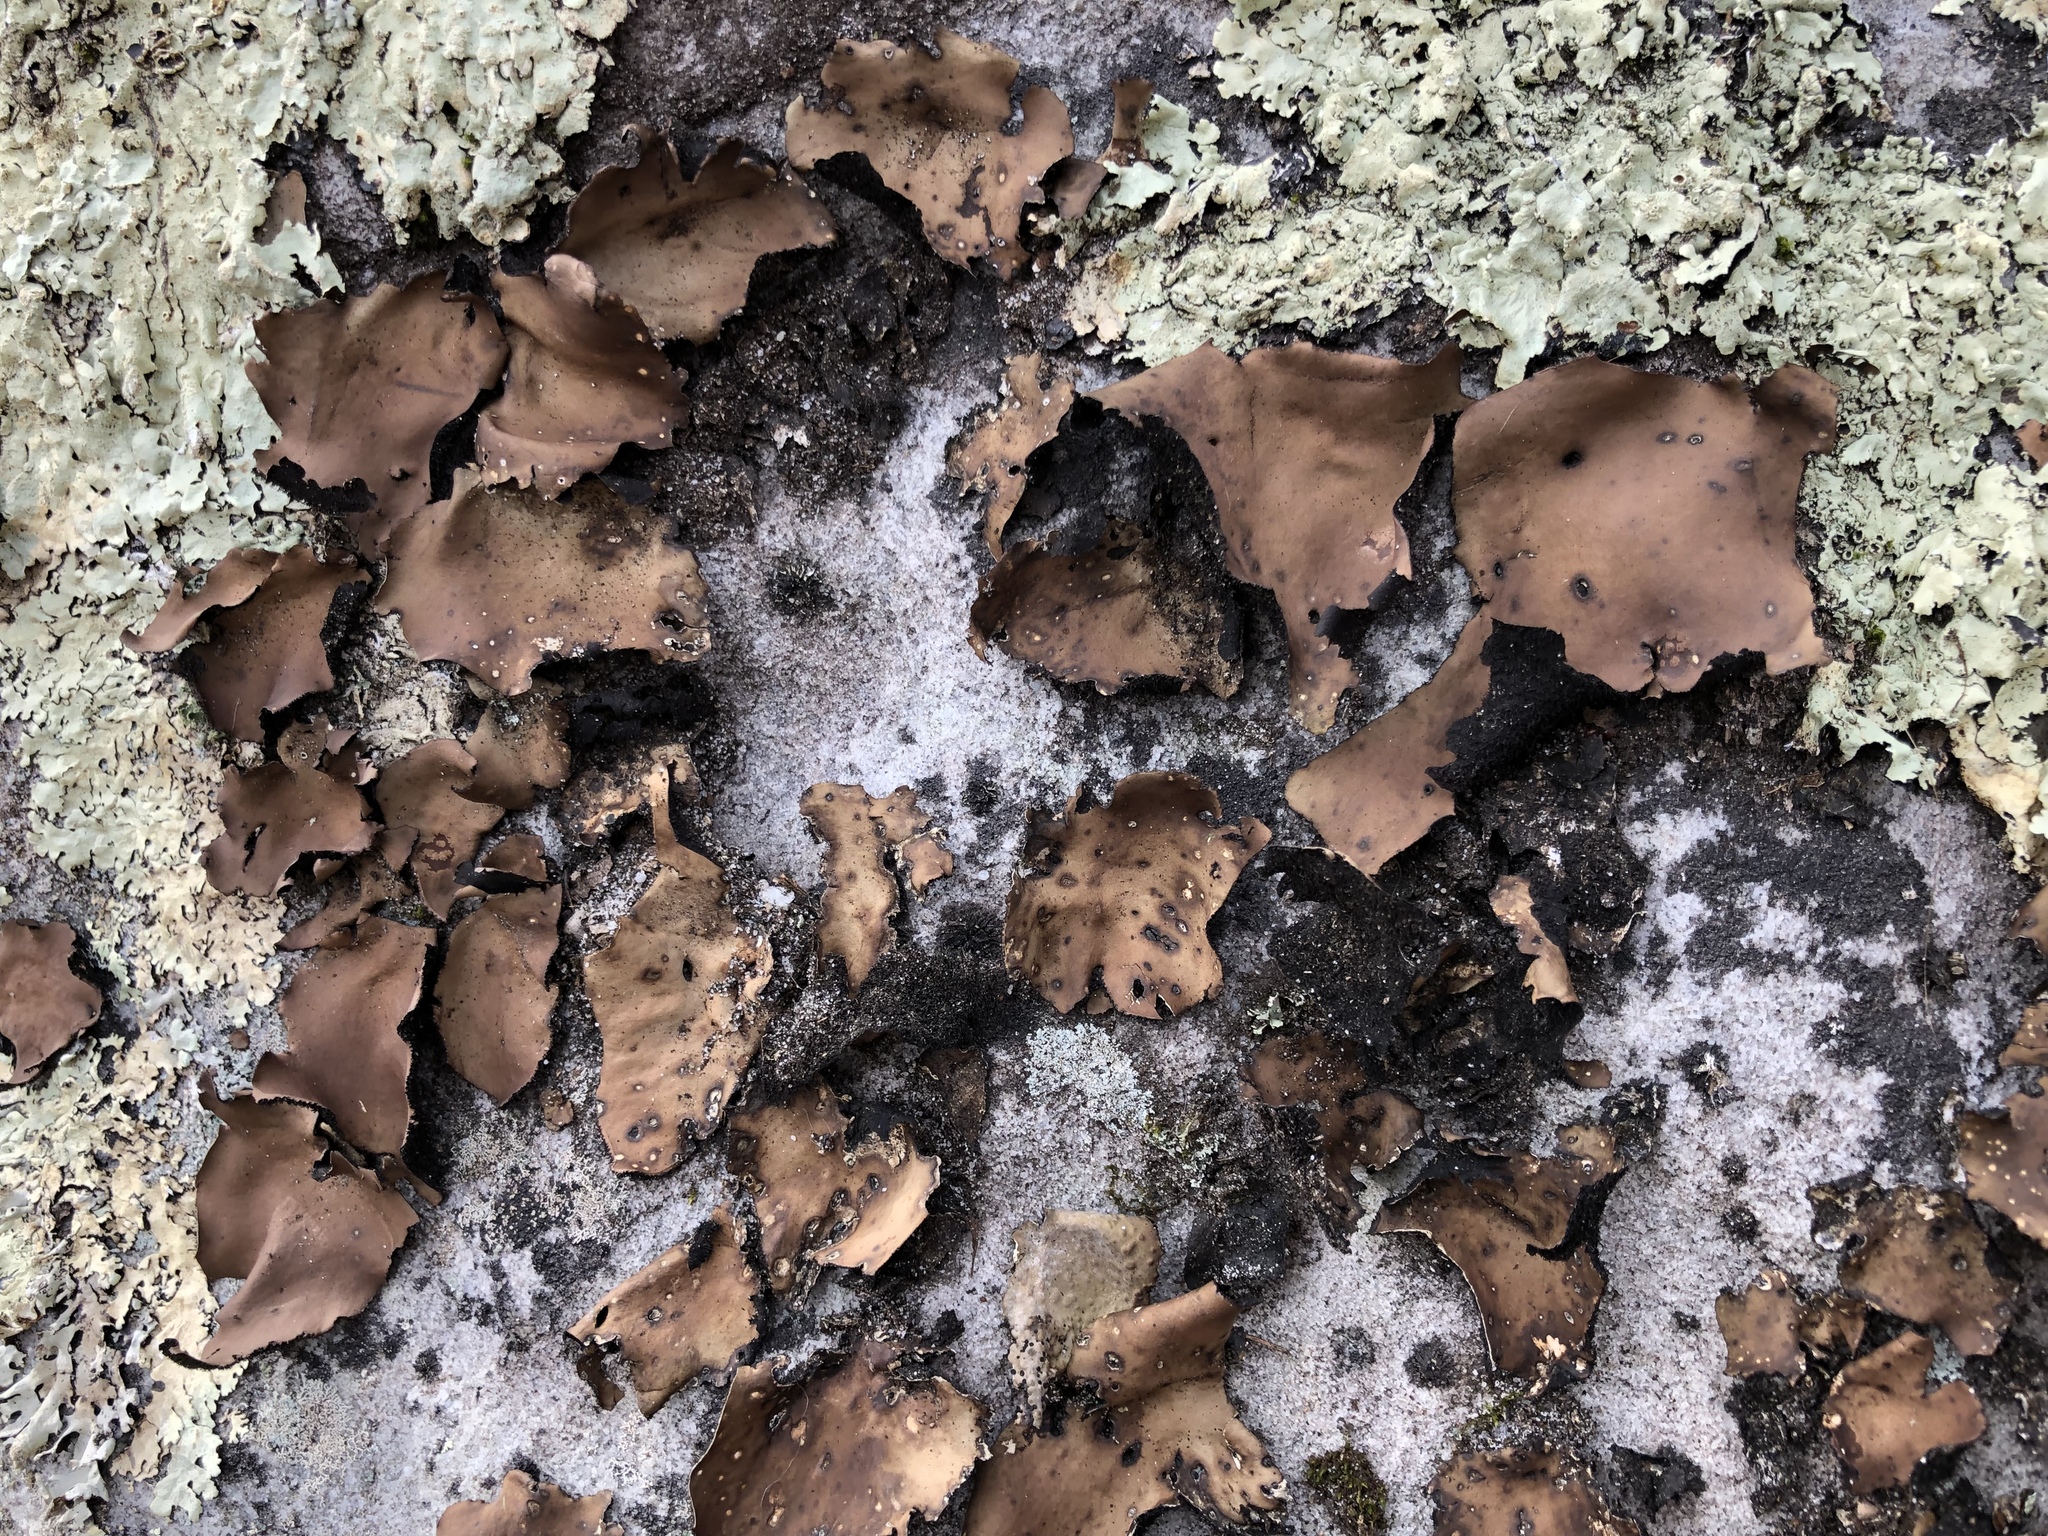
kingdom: Fungi
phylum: Ascomycota
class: Lecanoromycetes
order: Umbilicariales
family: Umbilicariaceae
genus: Umbilicaria
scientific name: Umbilicaria mammulata
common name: Smooth rock tripe
